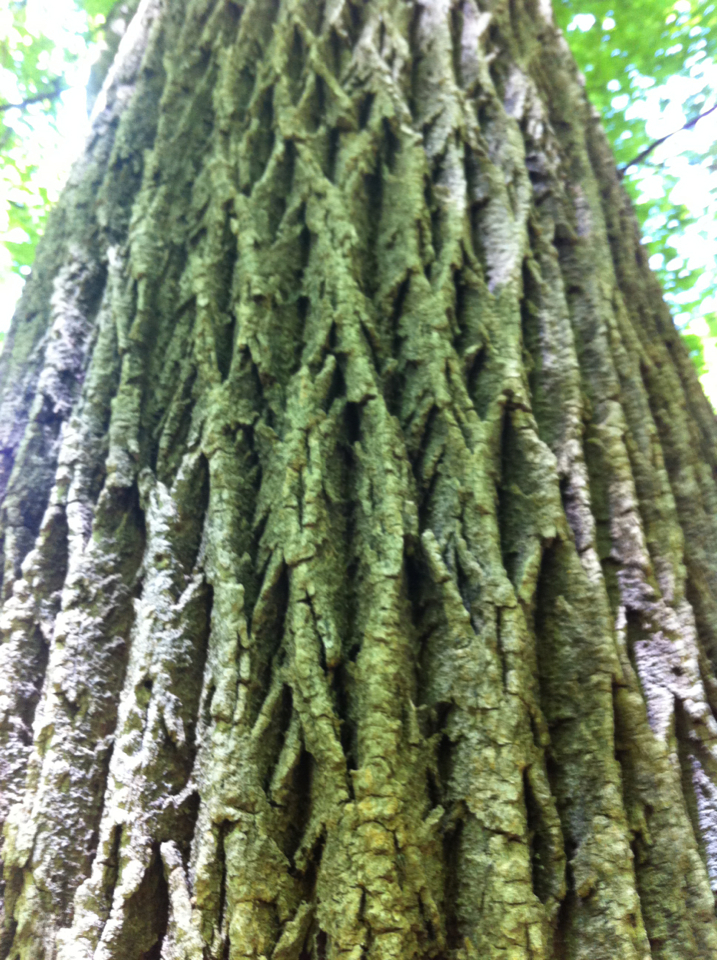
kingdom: Plantae
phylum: Tracheophyta
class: Magnoliopsida
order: Lamiales
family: Oleaceae
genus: Fraxinus
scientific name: Fraxinus americana
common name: White ash
